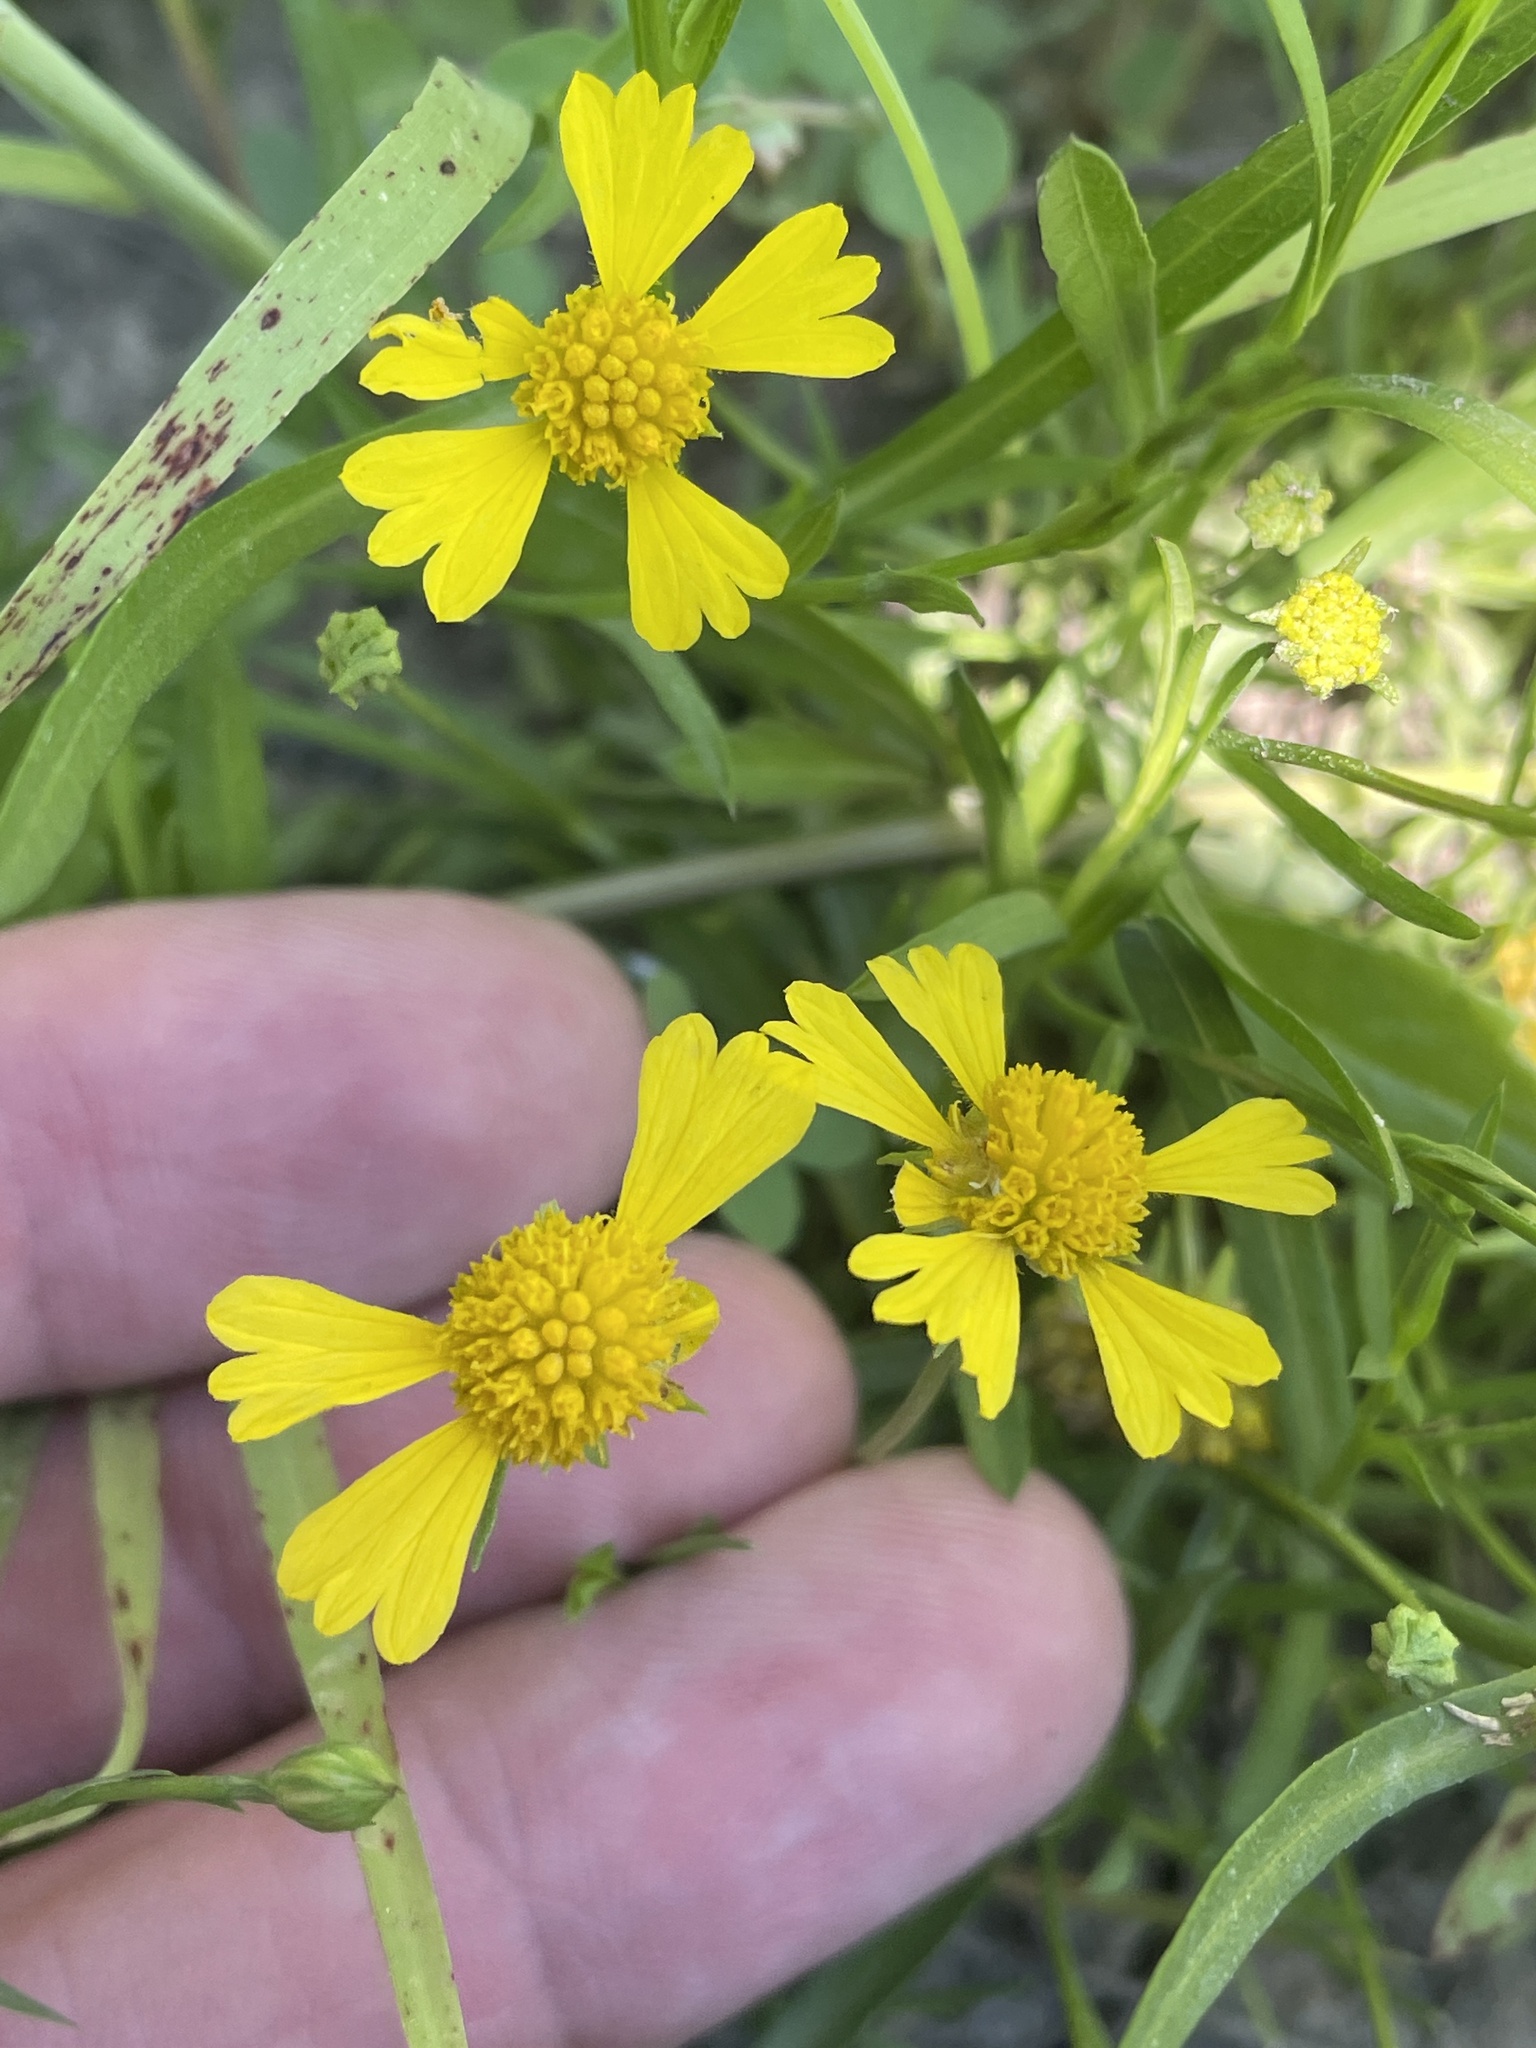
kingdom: Plantae
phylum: Tracheophyta
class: Magnoliopsida
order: Asterales
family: Asteraceae
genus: Helenium
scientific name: Helenium amarum
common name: Bitter sneezeweed
